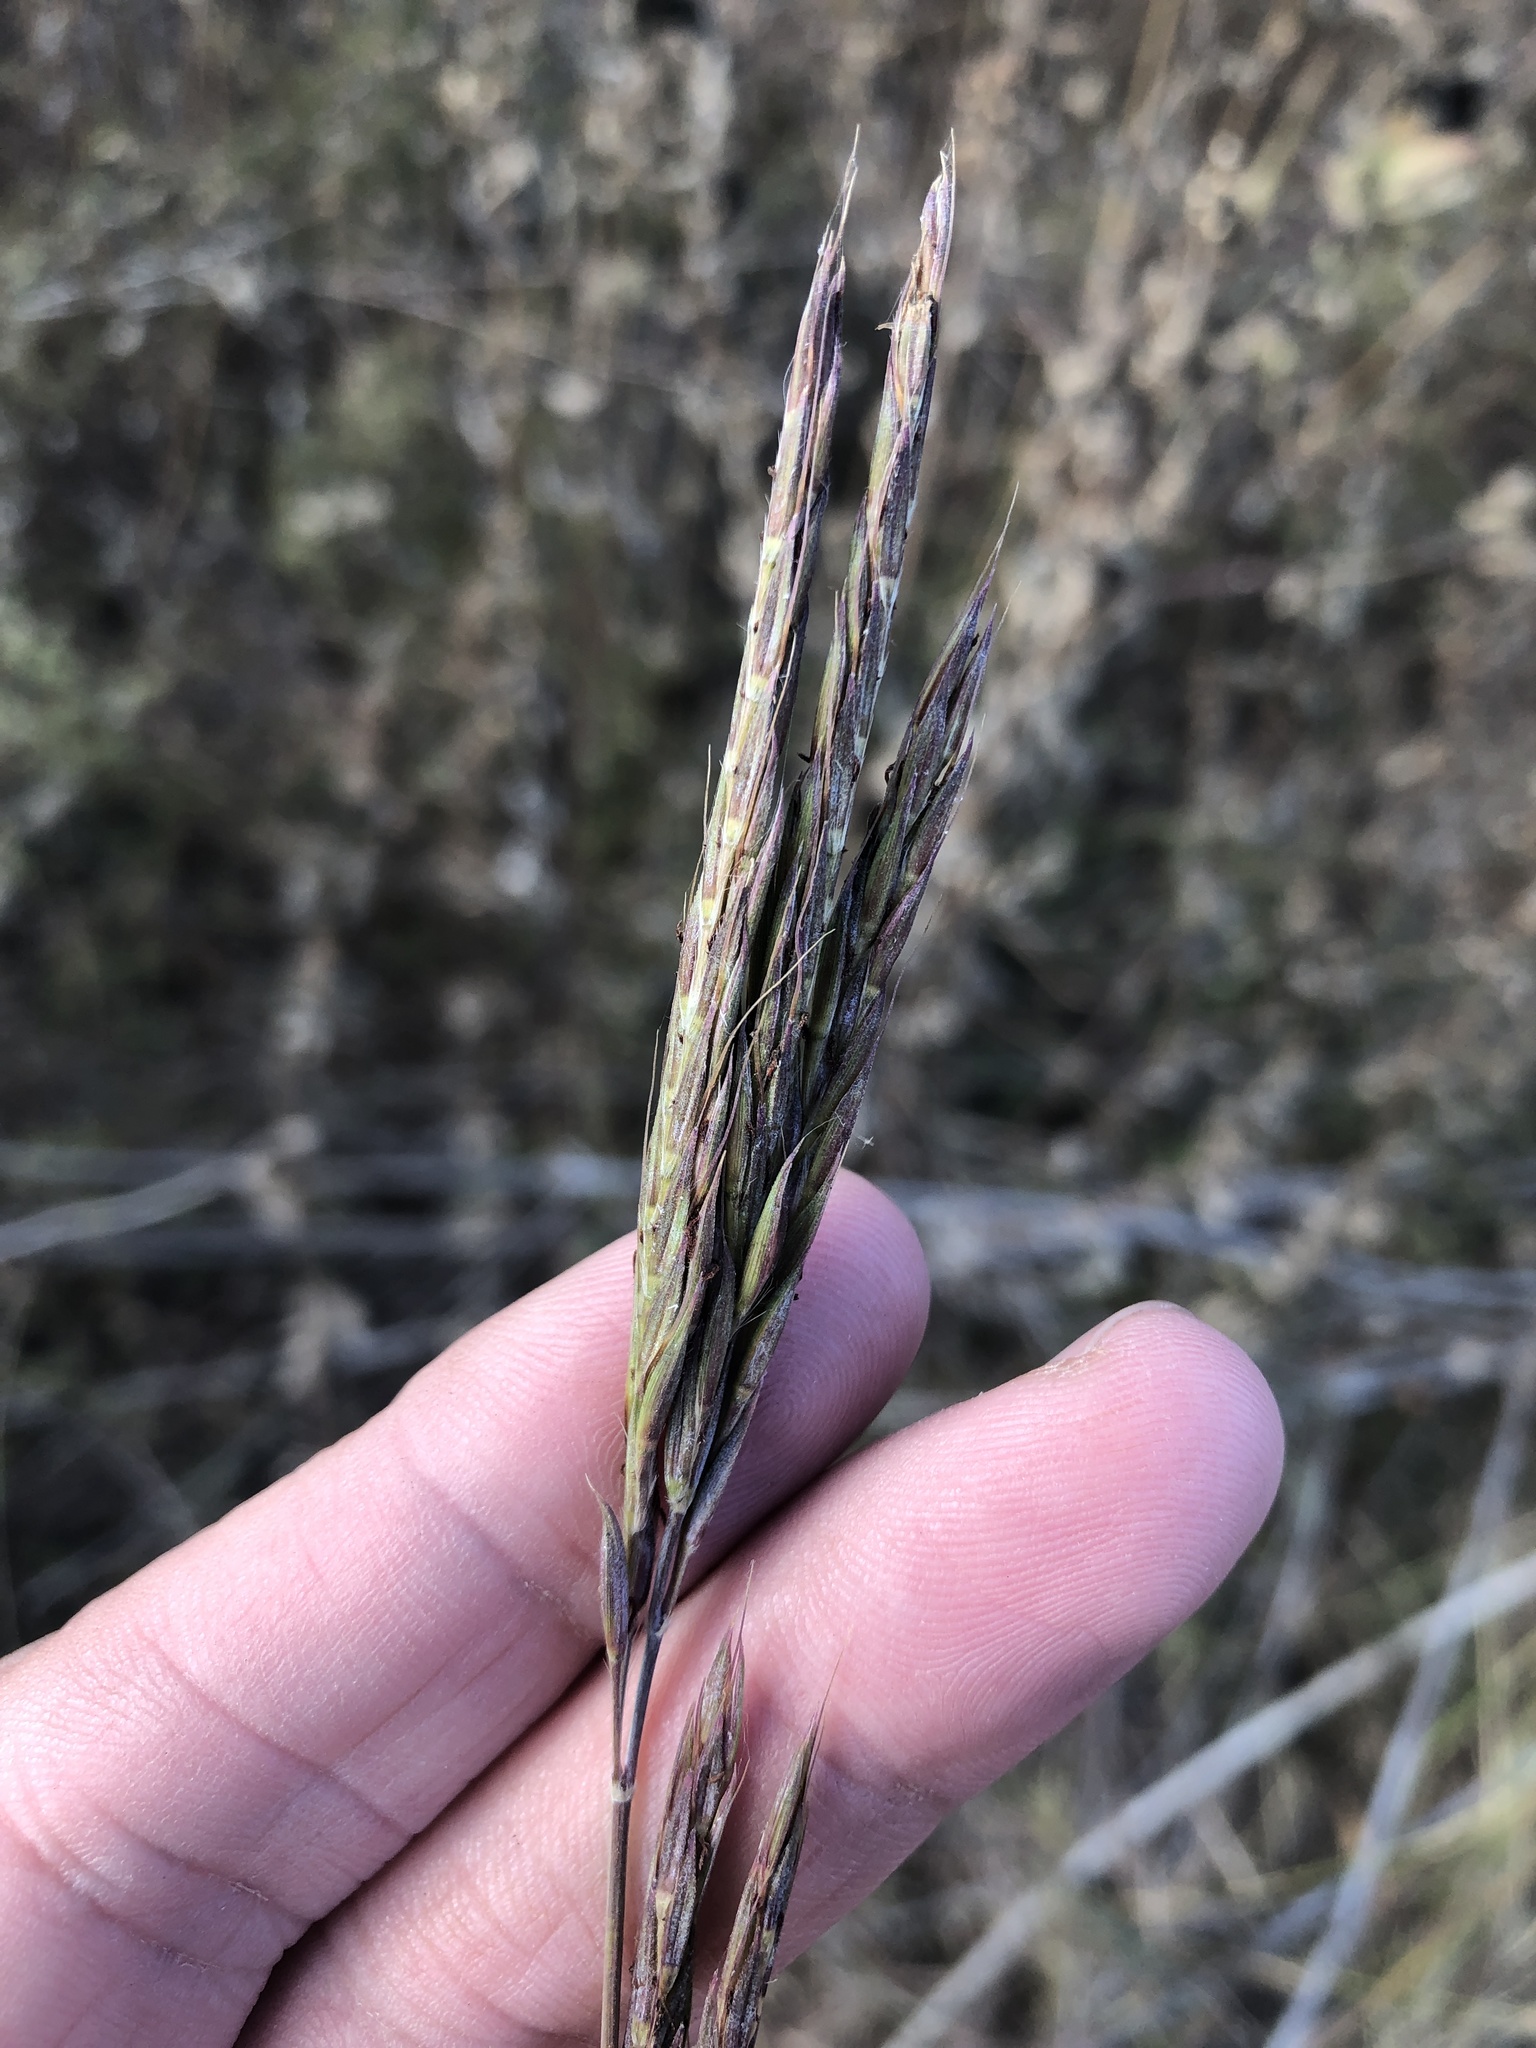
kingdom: Plantae
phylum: Tracheophyta
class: Liliopsida
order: Poales
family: Poaceae
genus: Andropogon
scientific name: Andropogon gerardi
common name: Big bluestem
